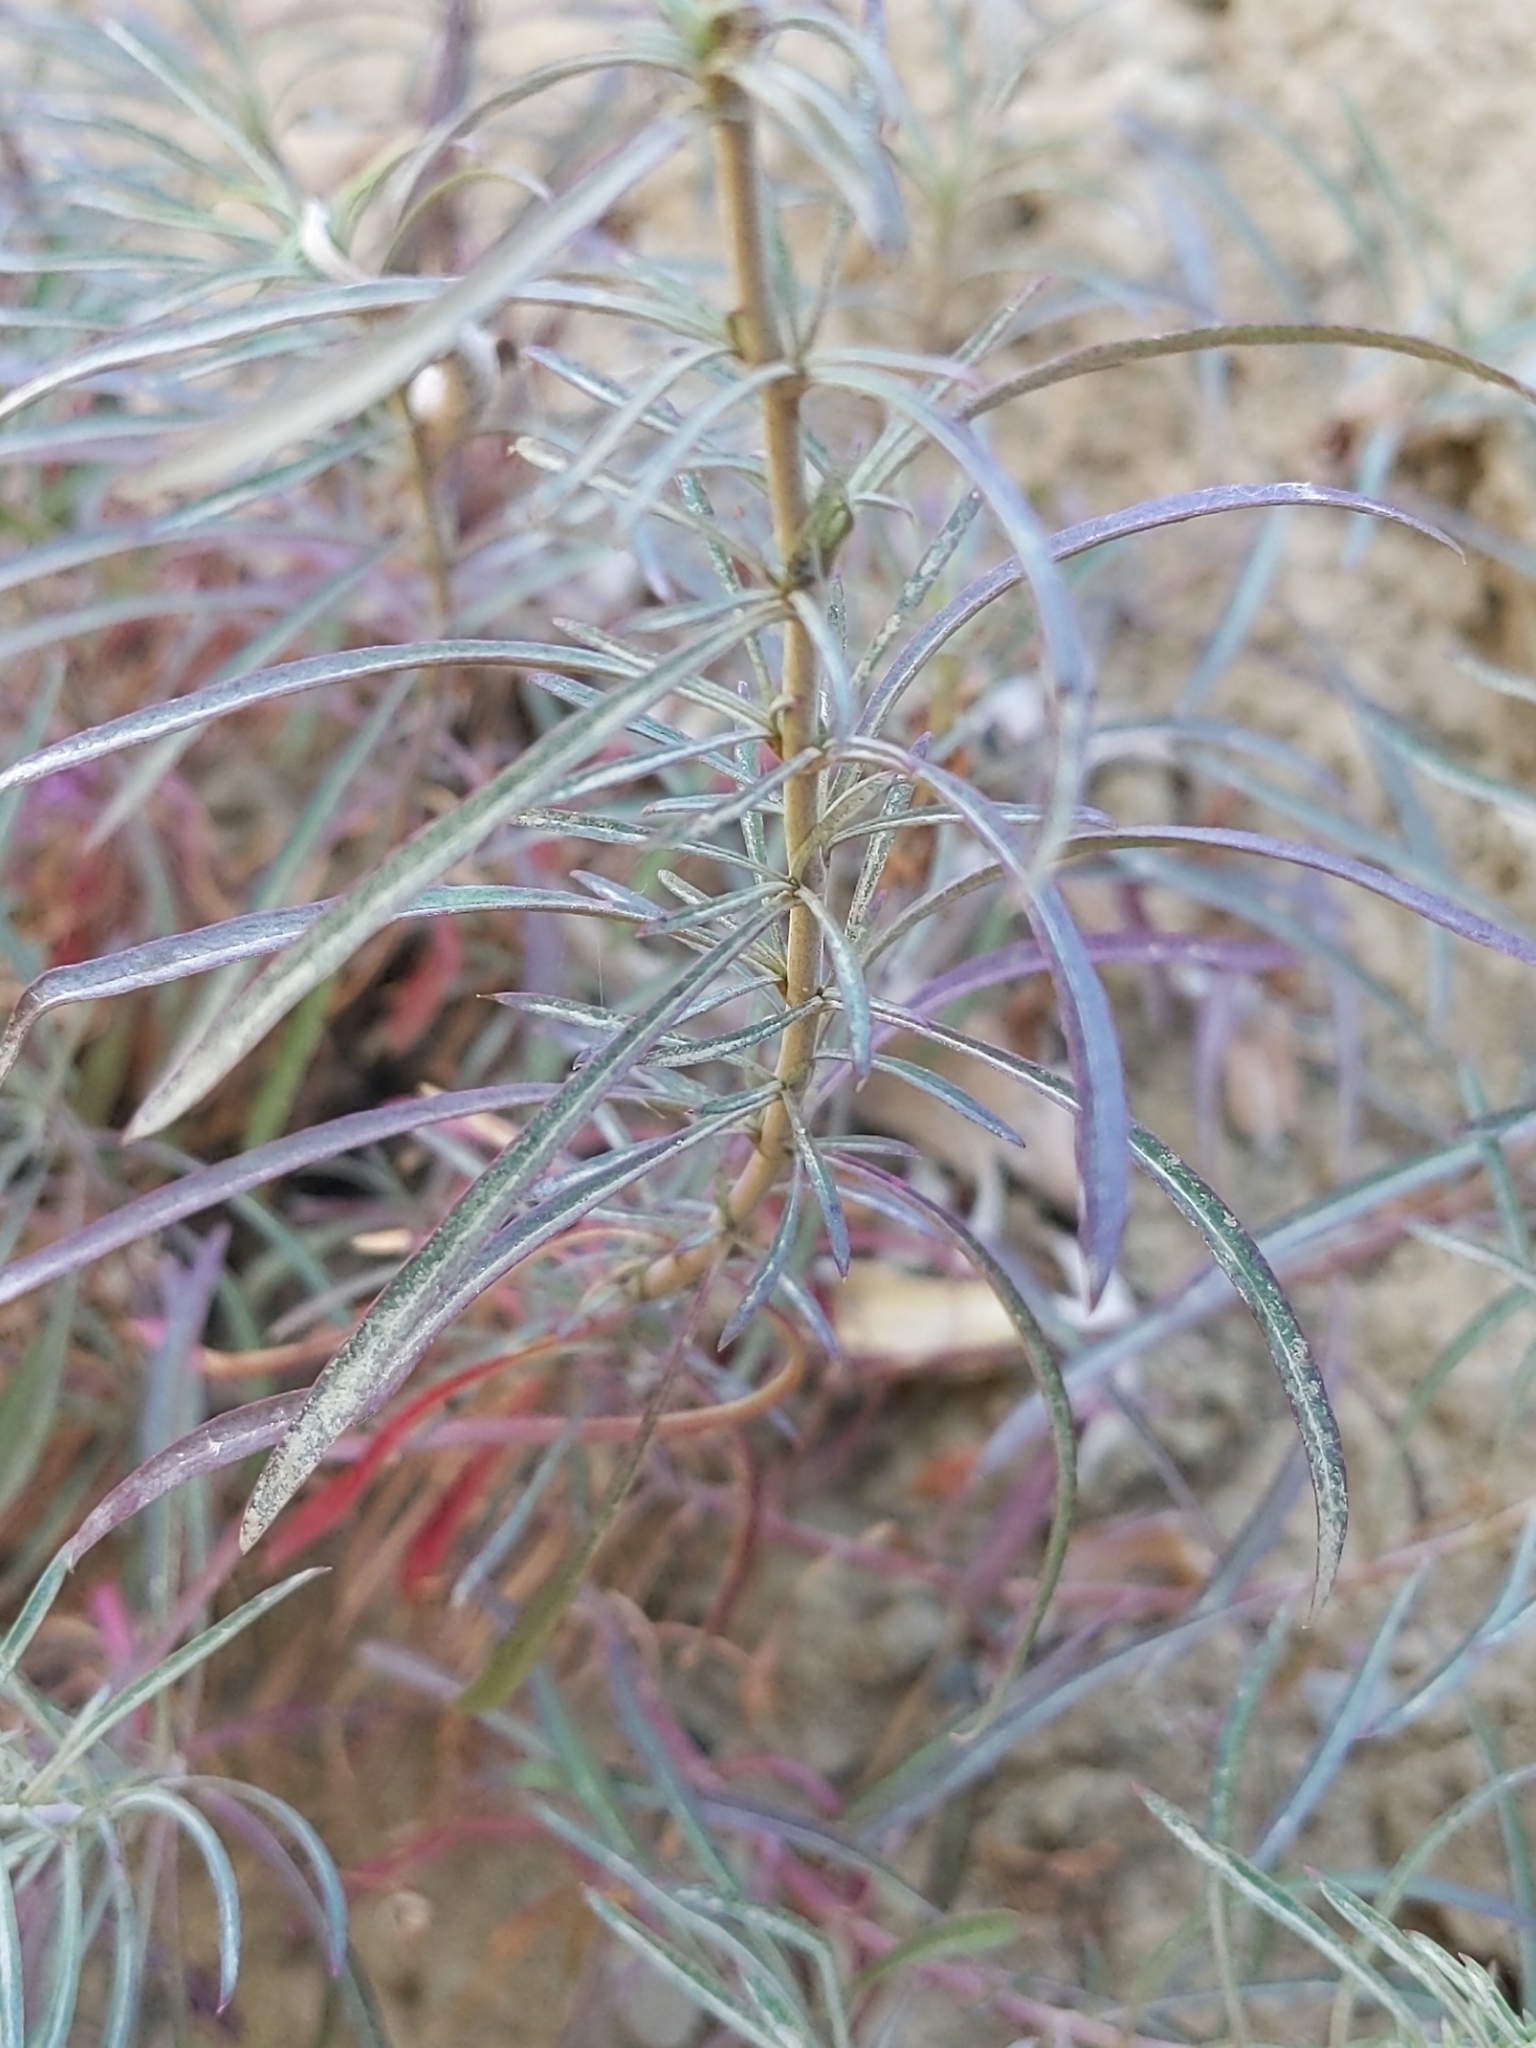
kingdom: Plantae
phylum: Tracheophyta
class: Magnoliopsida
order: Lamiales
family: Plantaginaceae
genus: Penstemon
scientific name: Penstemon heterophyllus
